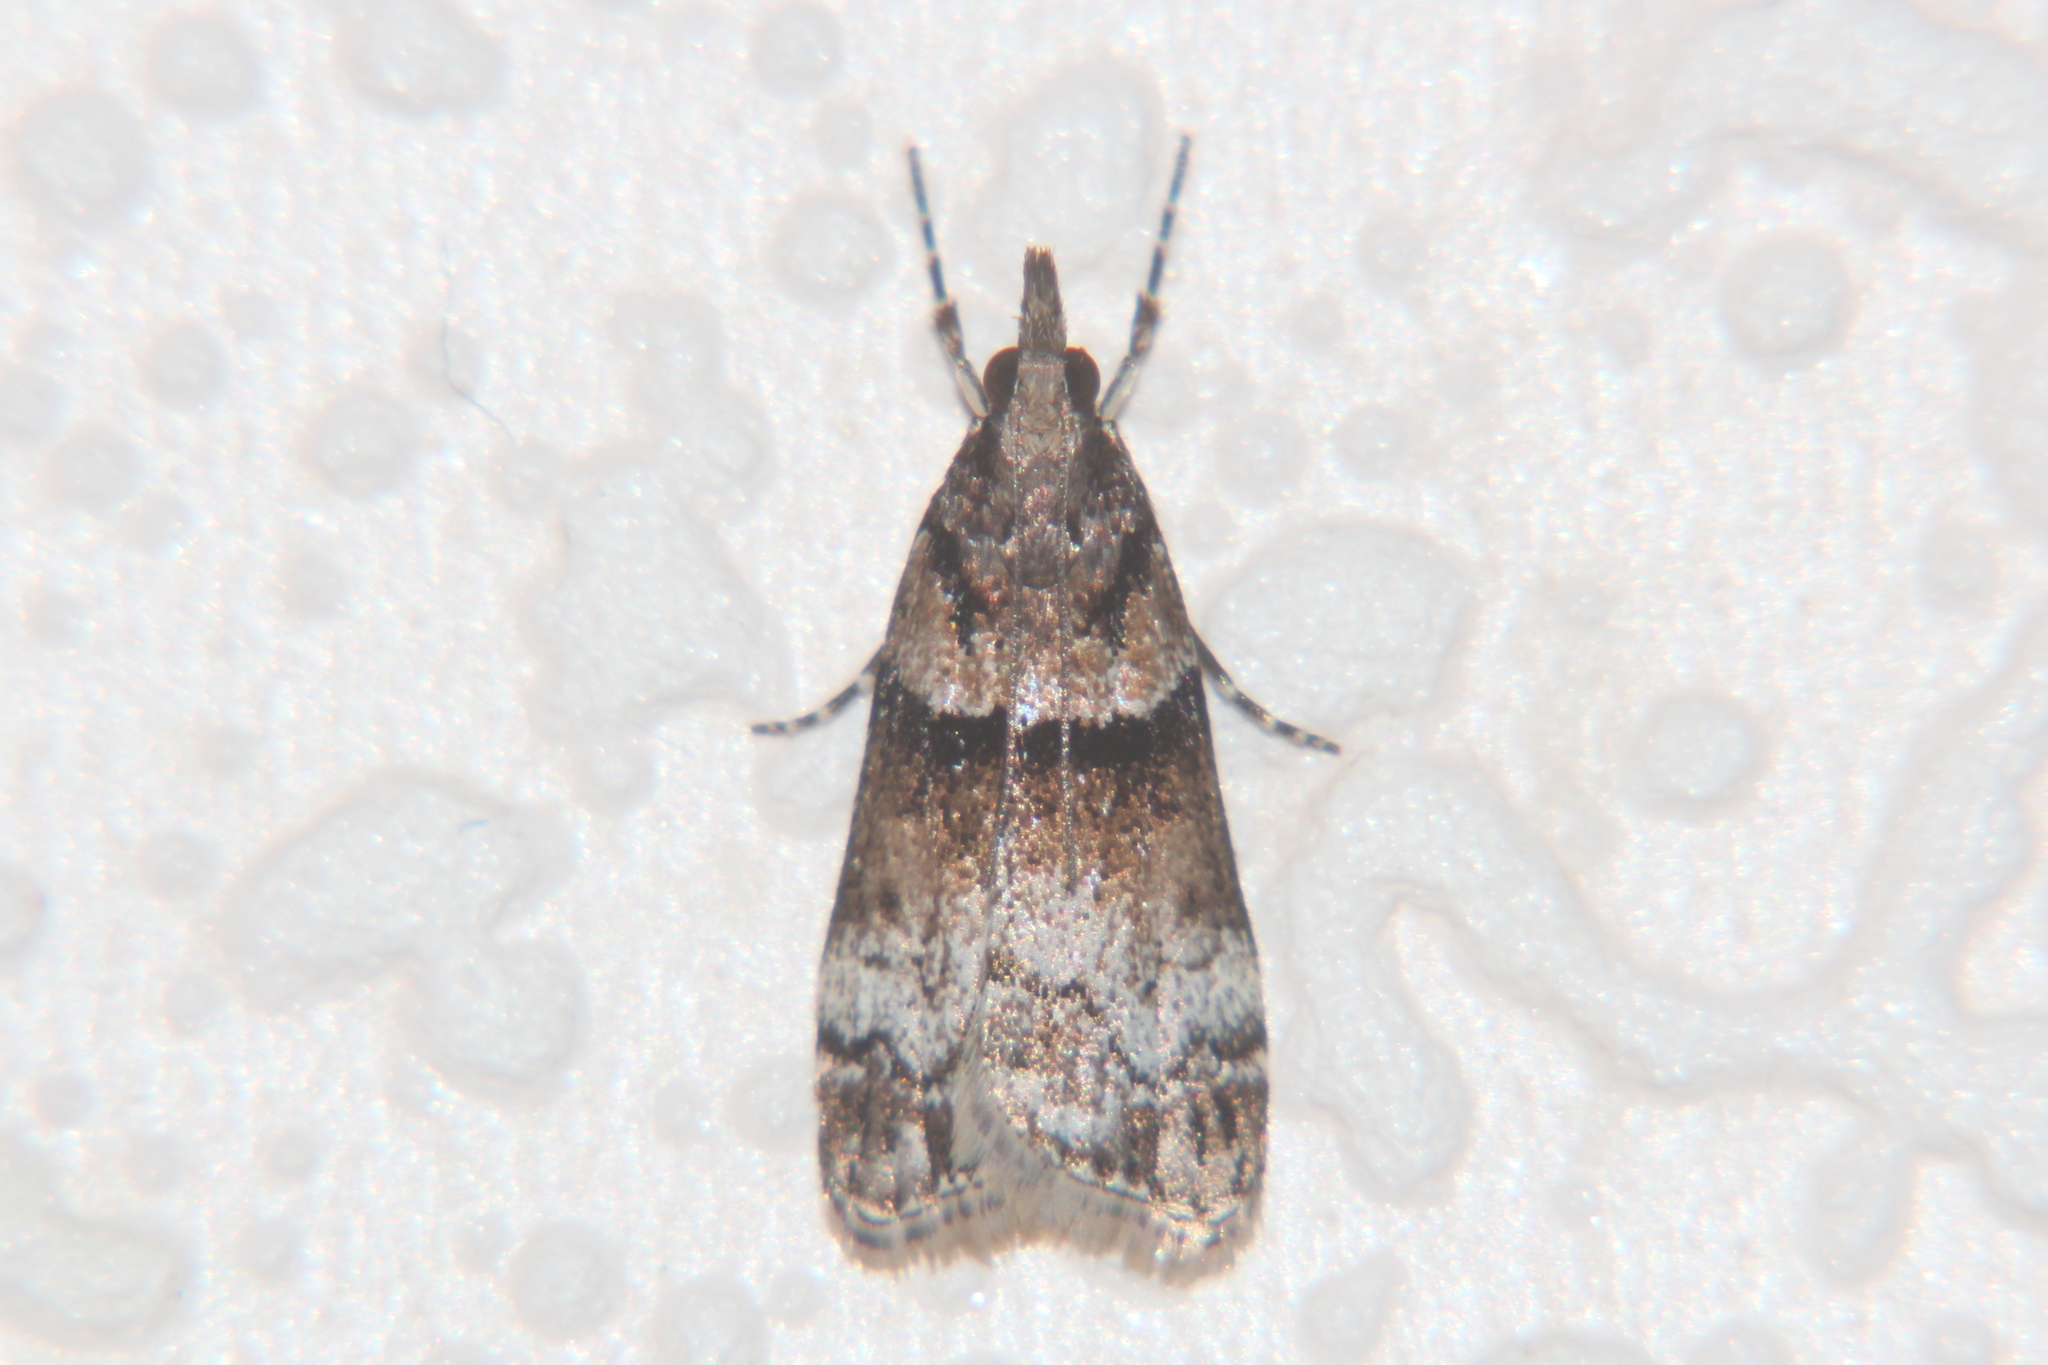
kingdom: Animalia
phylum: Arthropoda
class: Insecta
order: Lepidoptera
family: Crambidae
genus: Eudonia
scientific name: Eudonia colpota
